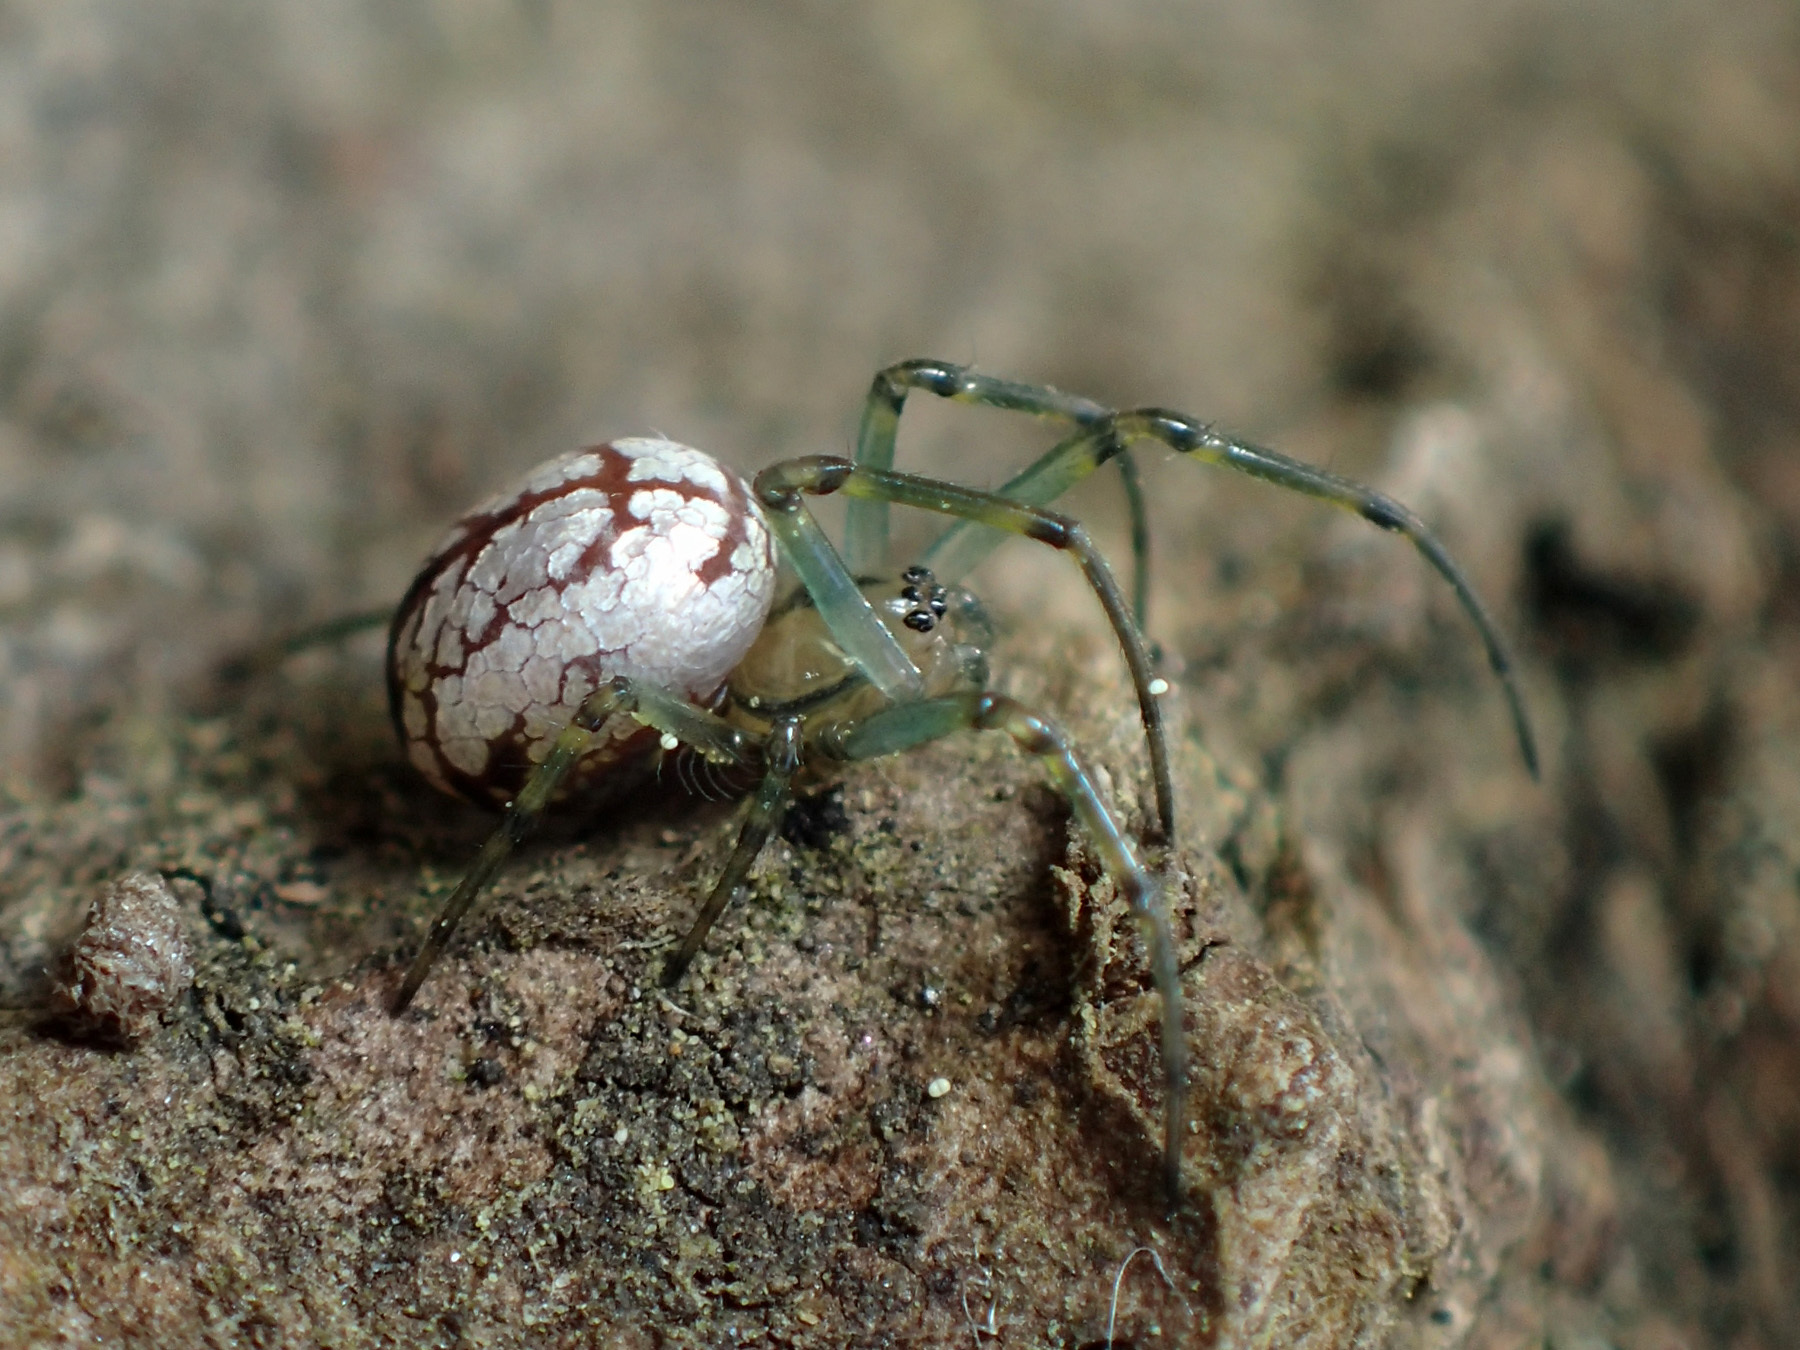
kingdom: Animalia
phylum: Arthropoda
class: Arachnida
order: Araneae
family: Tetragnathidae
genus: Leucauge
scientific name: Leucauge venusta
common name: Longjawed orb weavers
